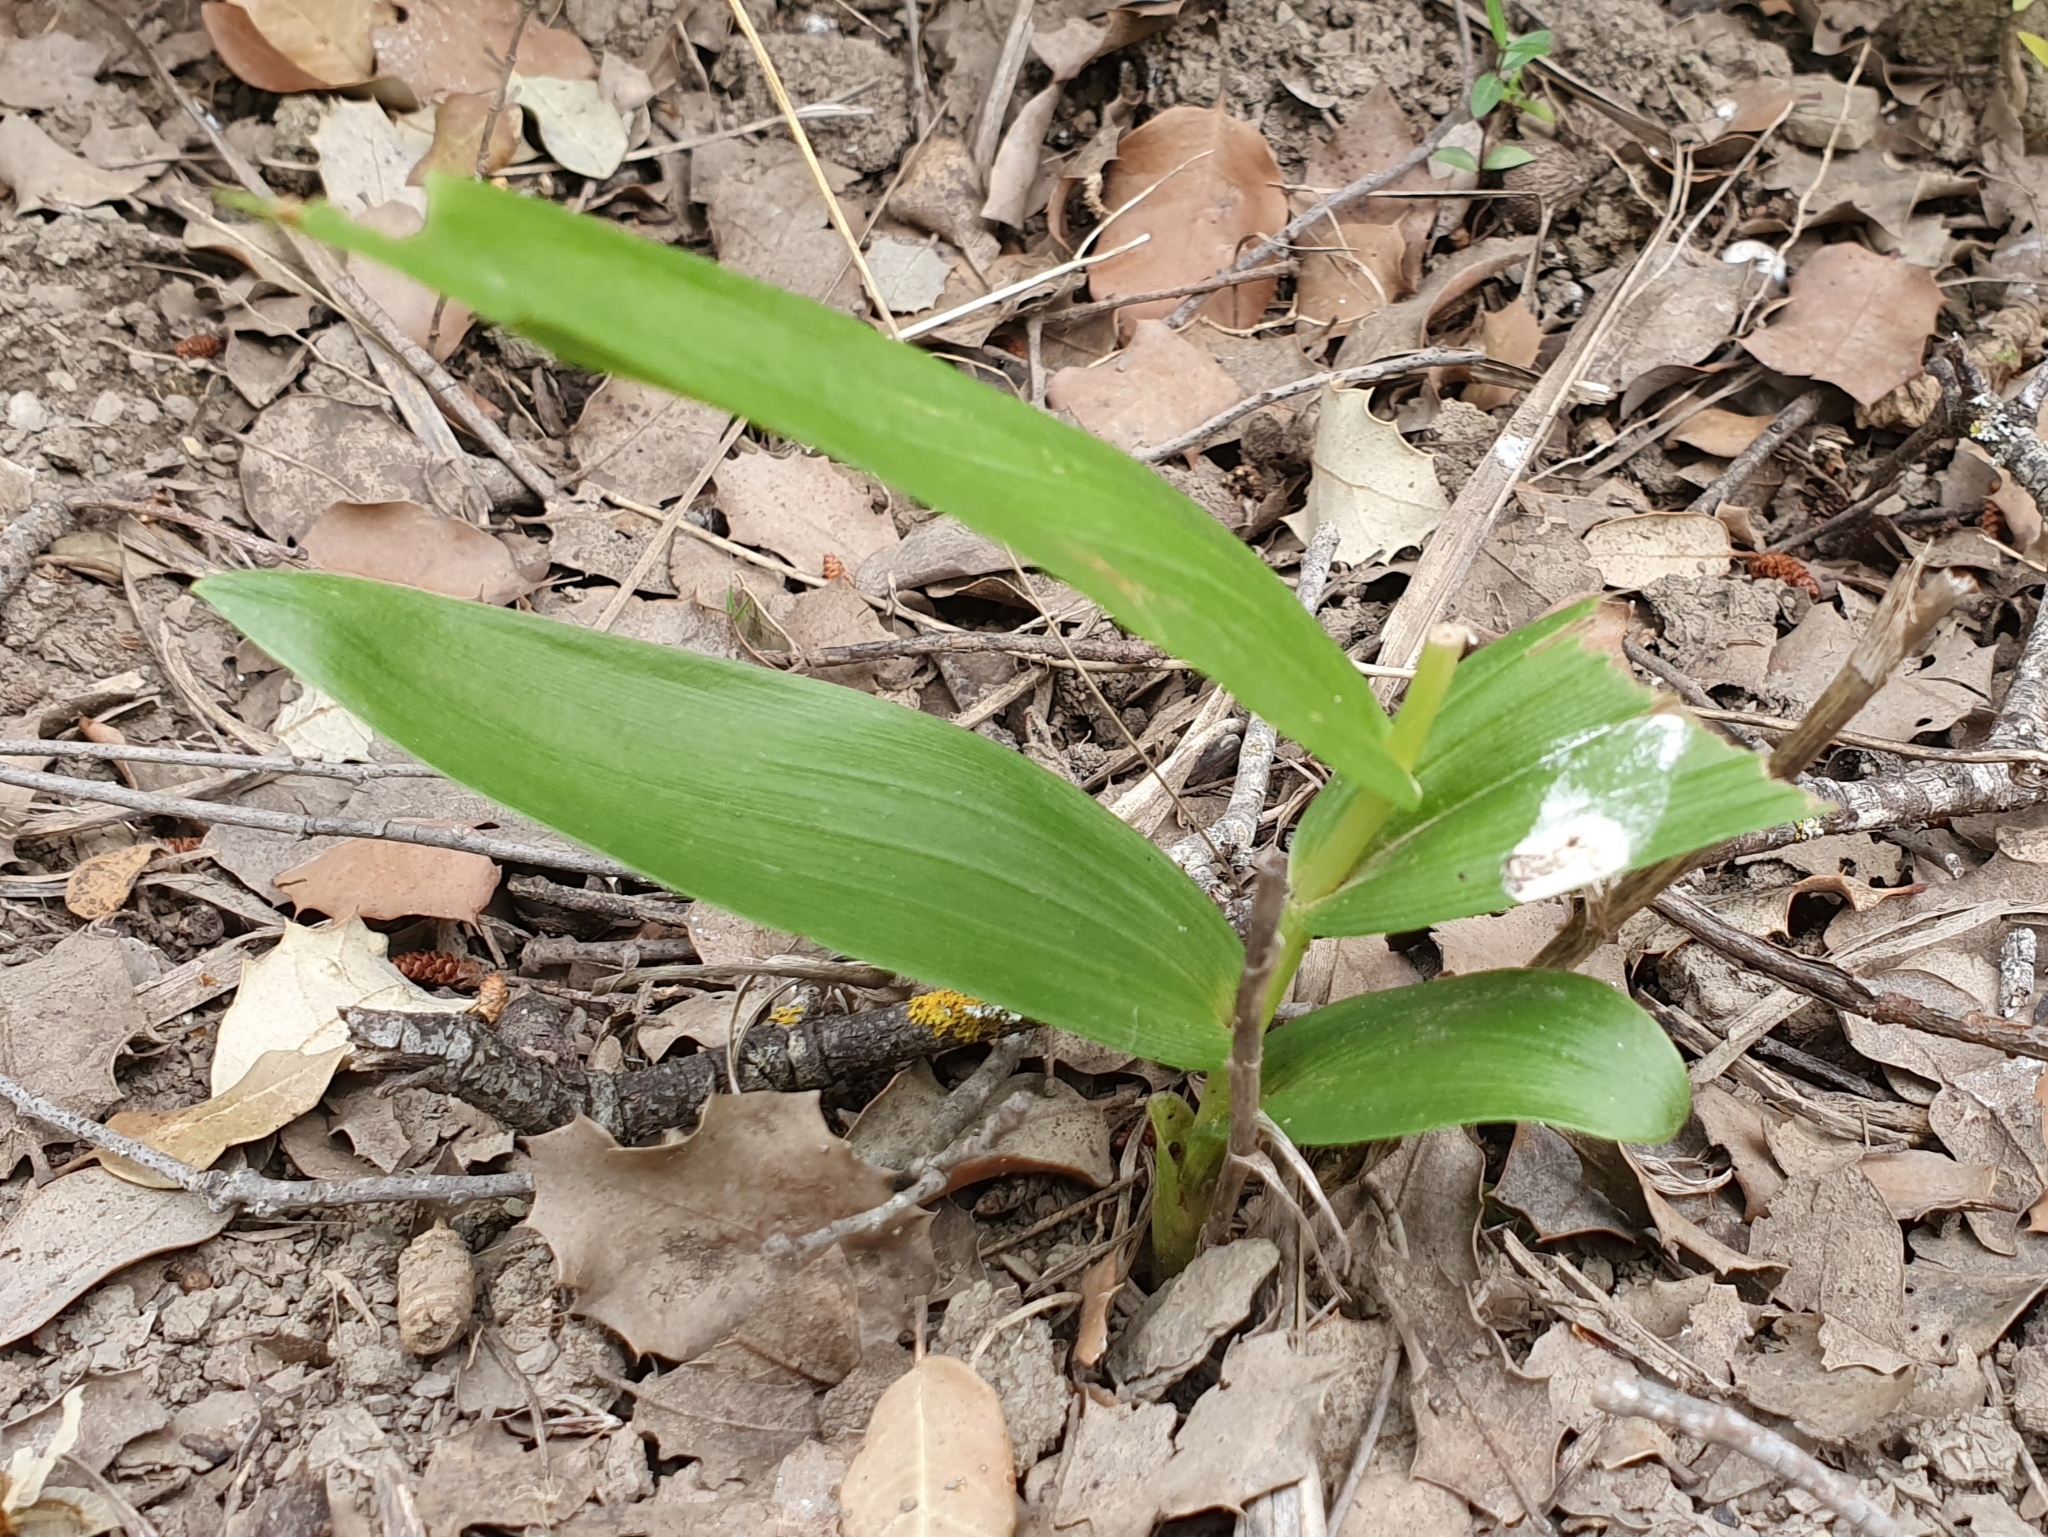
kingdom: Plantae
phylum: Tracheophyta
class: Liliopsida
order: Asparagales
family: Orchidaceae
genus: Cephalanthera
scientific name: Cephalanthera longifolia
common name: Narrow-leaved helleborine
